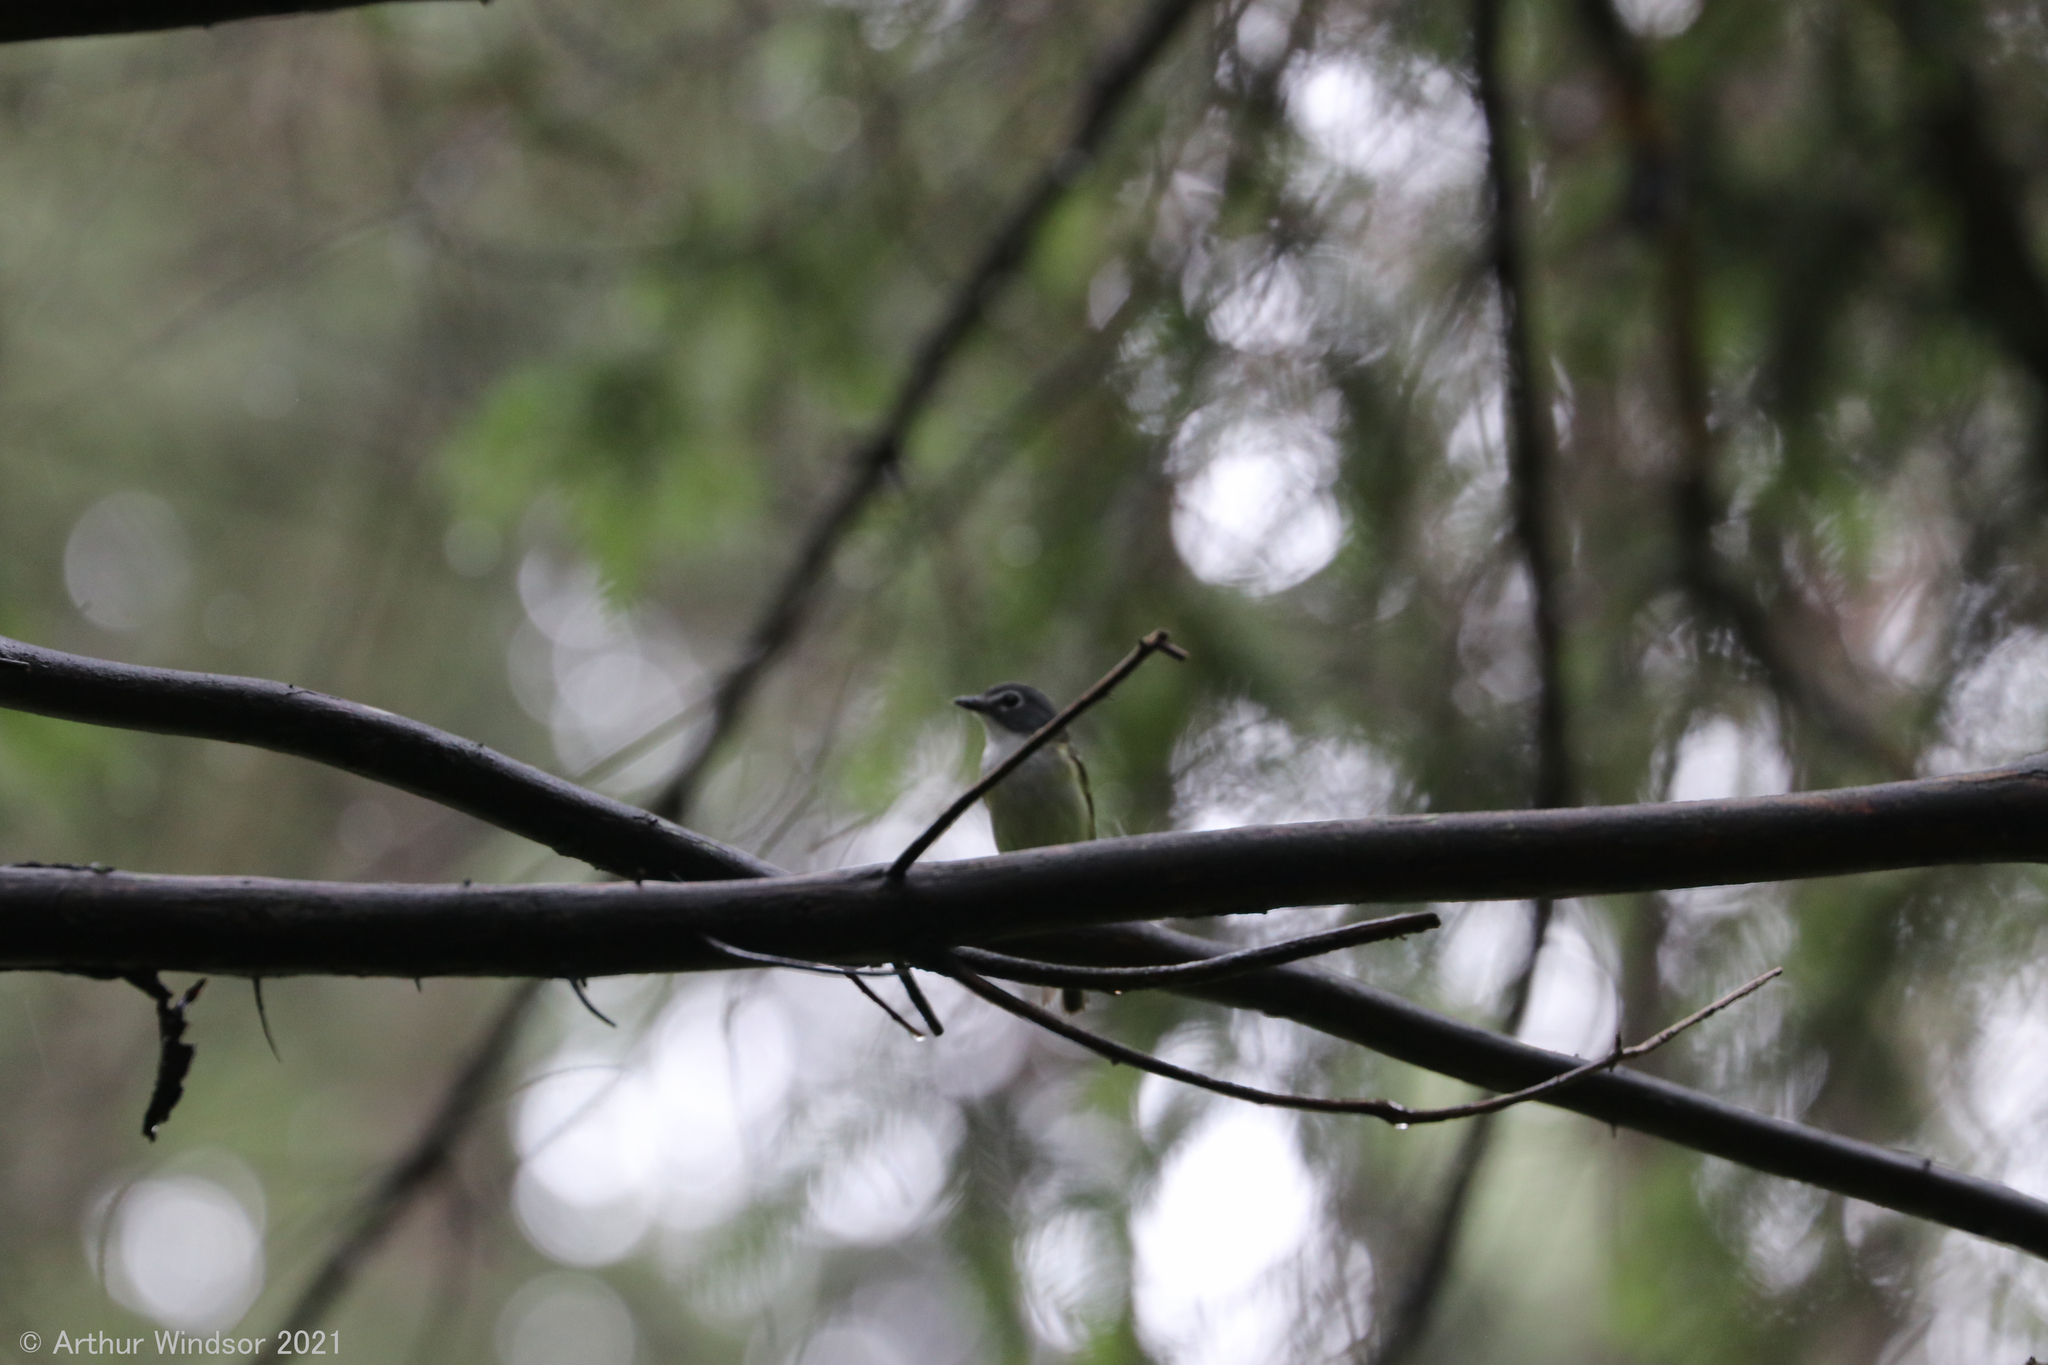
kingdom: Animalia
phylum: Chordata
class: Aves
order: Passeriformes
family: Vireonidae
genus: Vireo
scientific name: Vireo solitarius
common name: Blue-headed vireo
